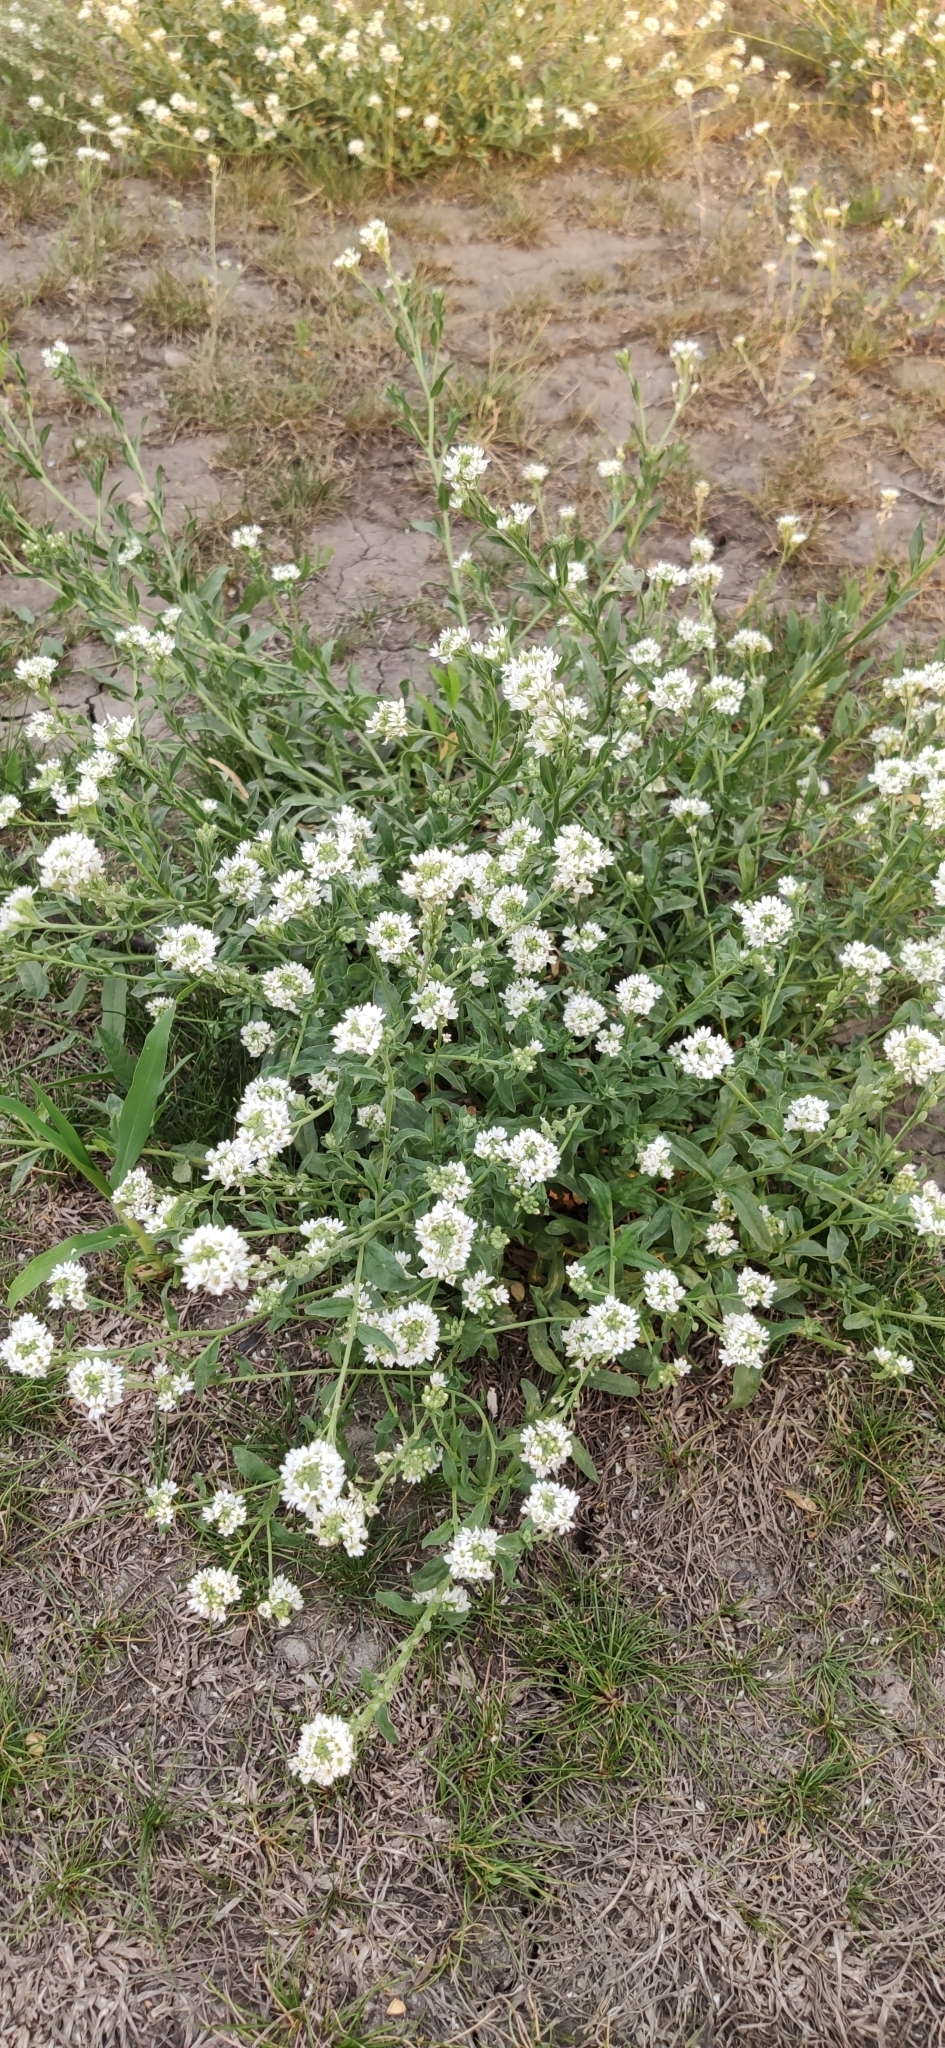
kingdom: Plantae
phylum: Tracheophyta
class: Magnoliopsida
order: Brassicales
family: Brassicaceae
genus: Berteroa
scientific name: Berteroa incana
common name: Hoary alison
